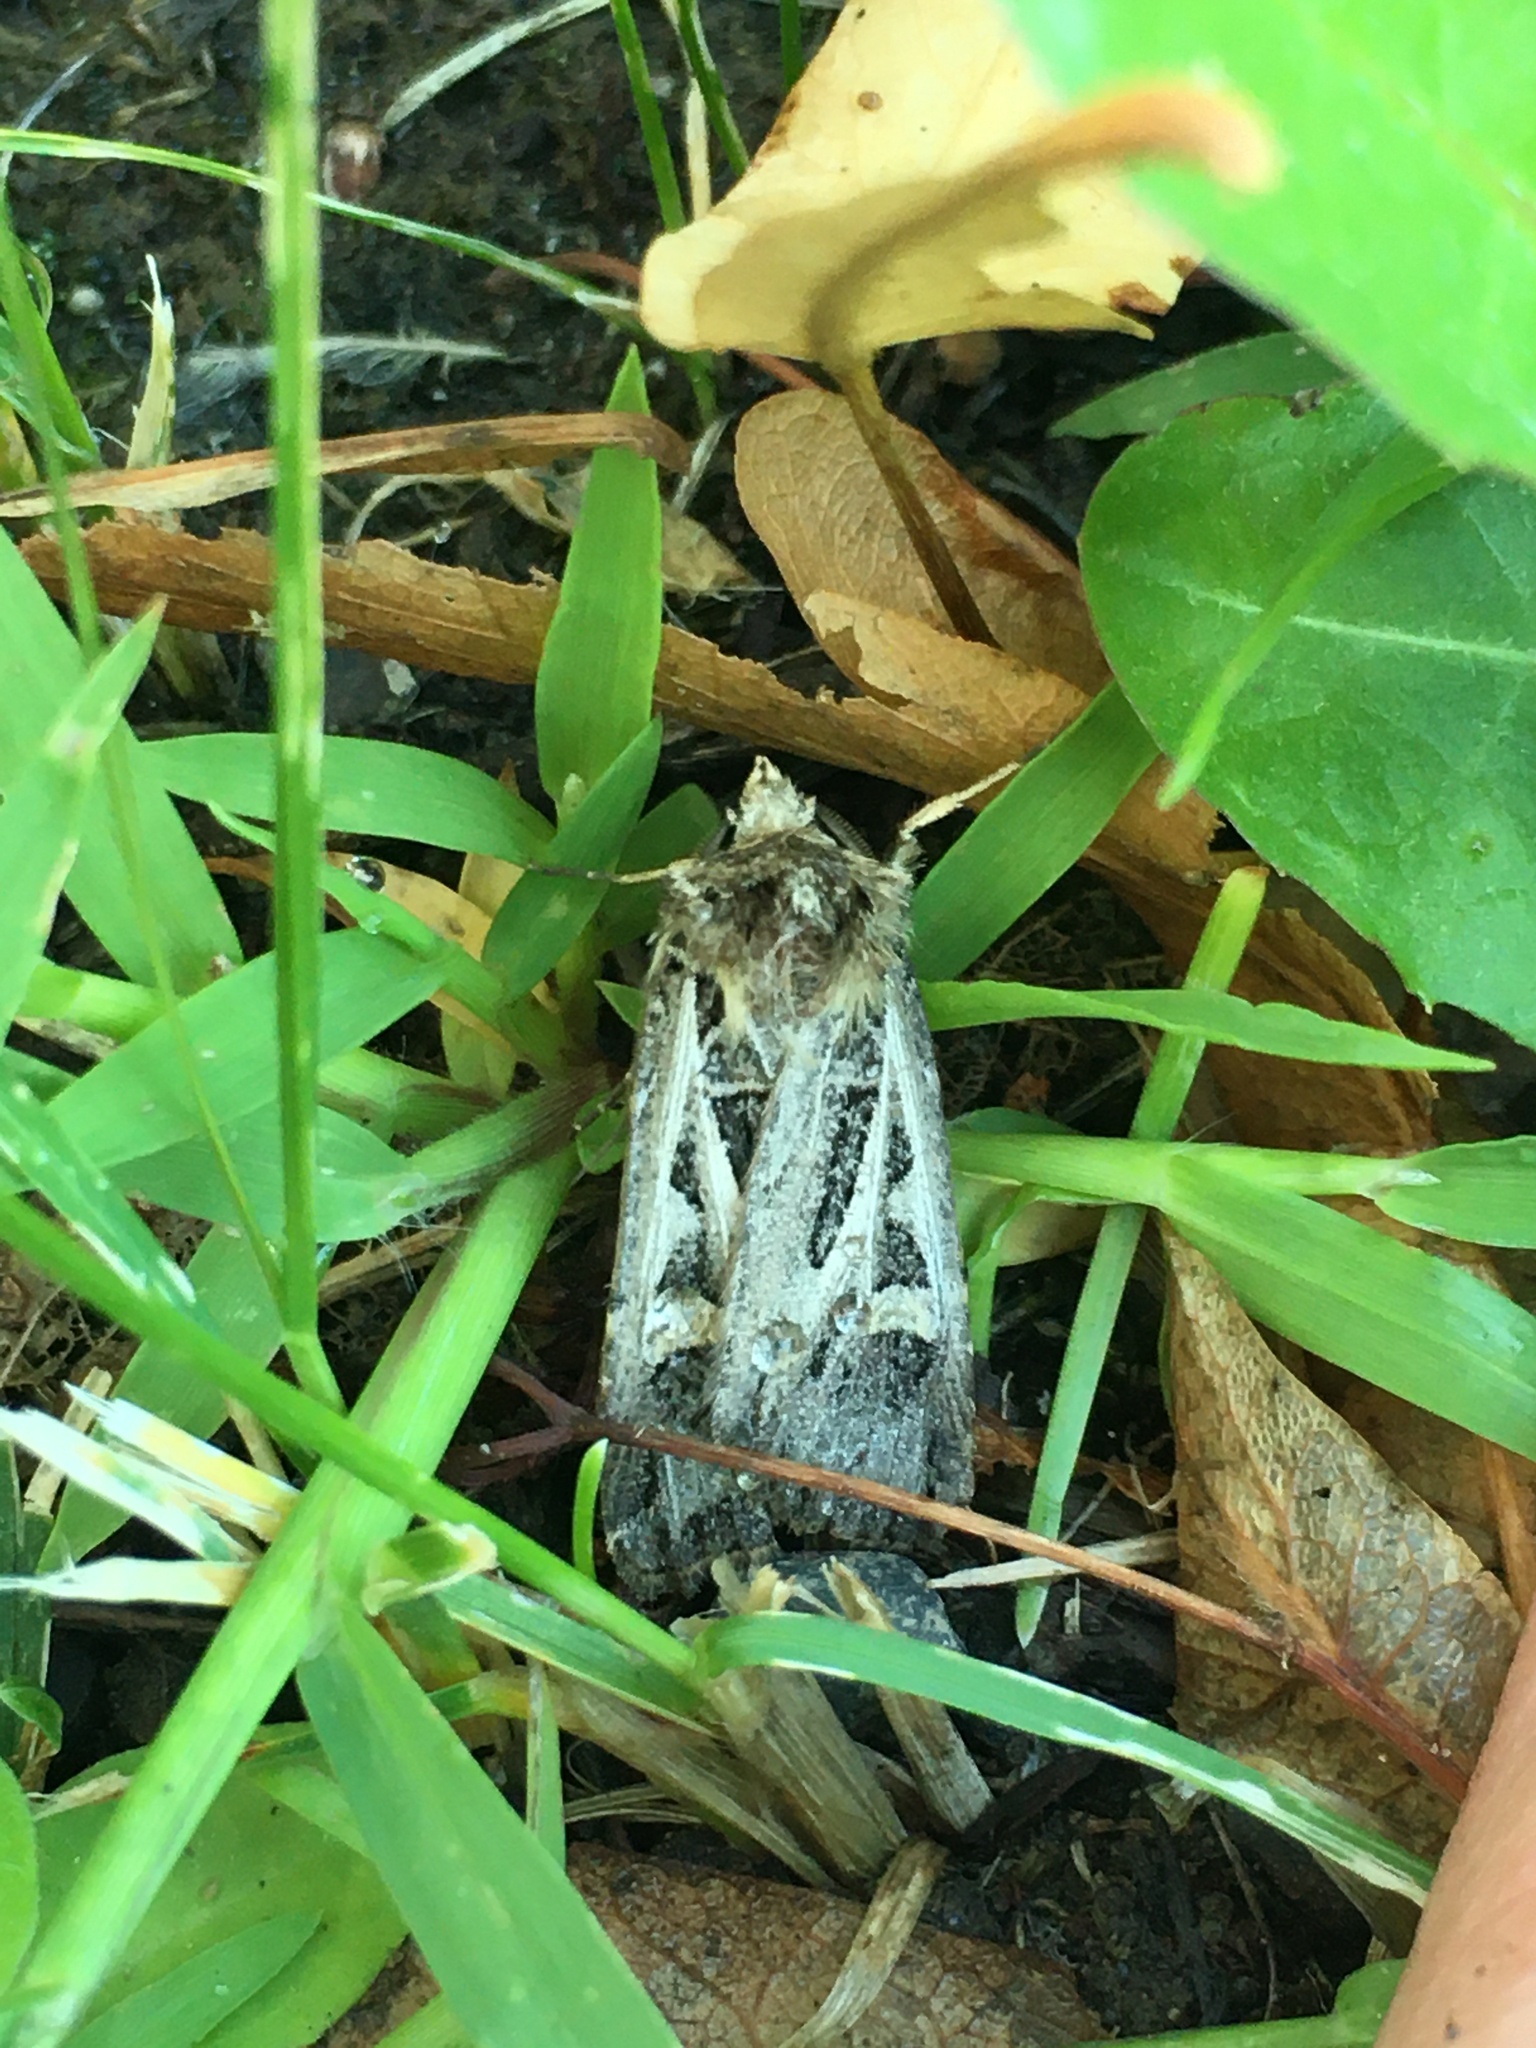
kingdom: Animalia
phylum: Arthropoda
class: Insecta
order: Lepidoptera
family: Noctuidae
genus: Feltia
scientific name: Feltia jaculifera
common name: Dingy cutworm moth
